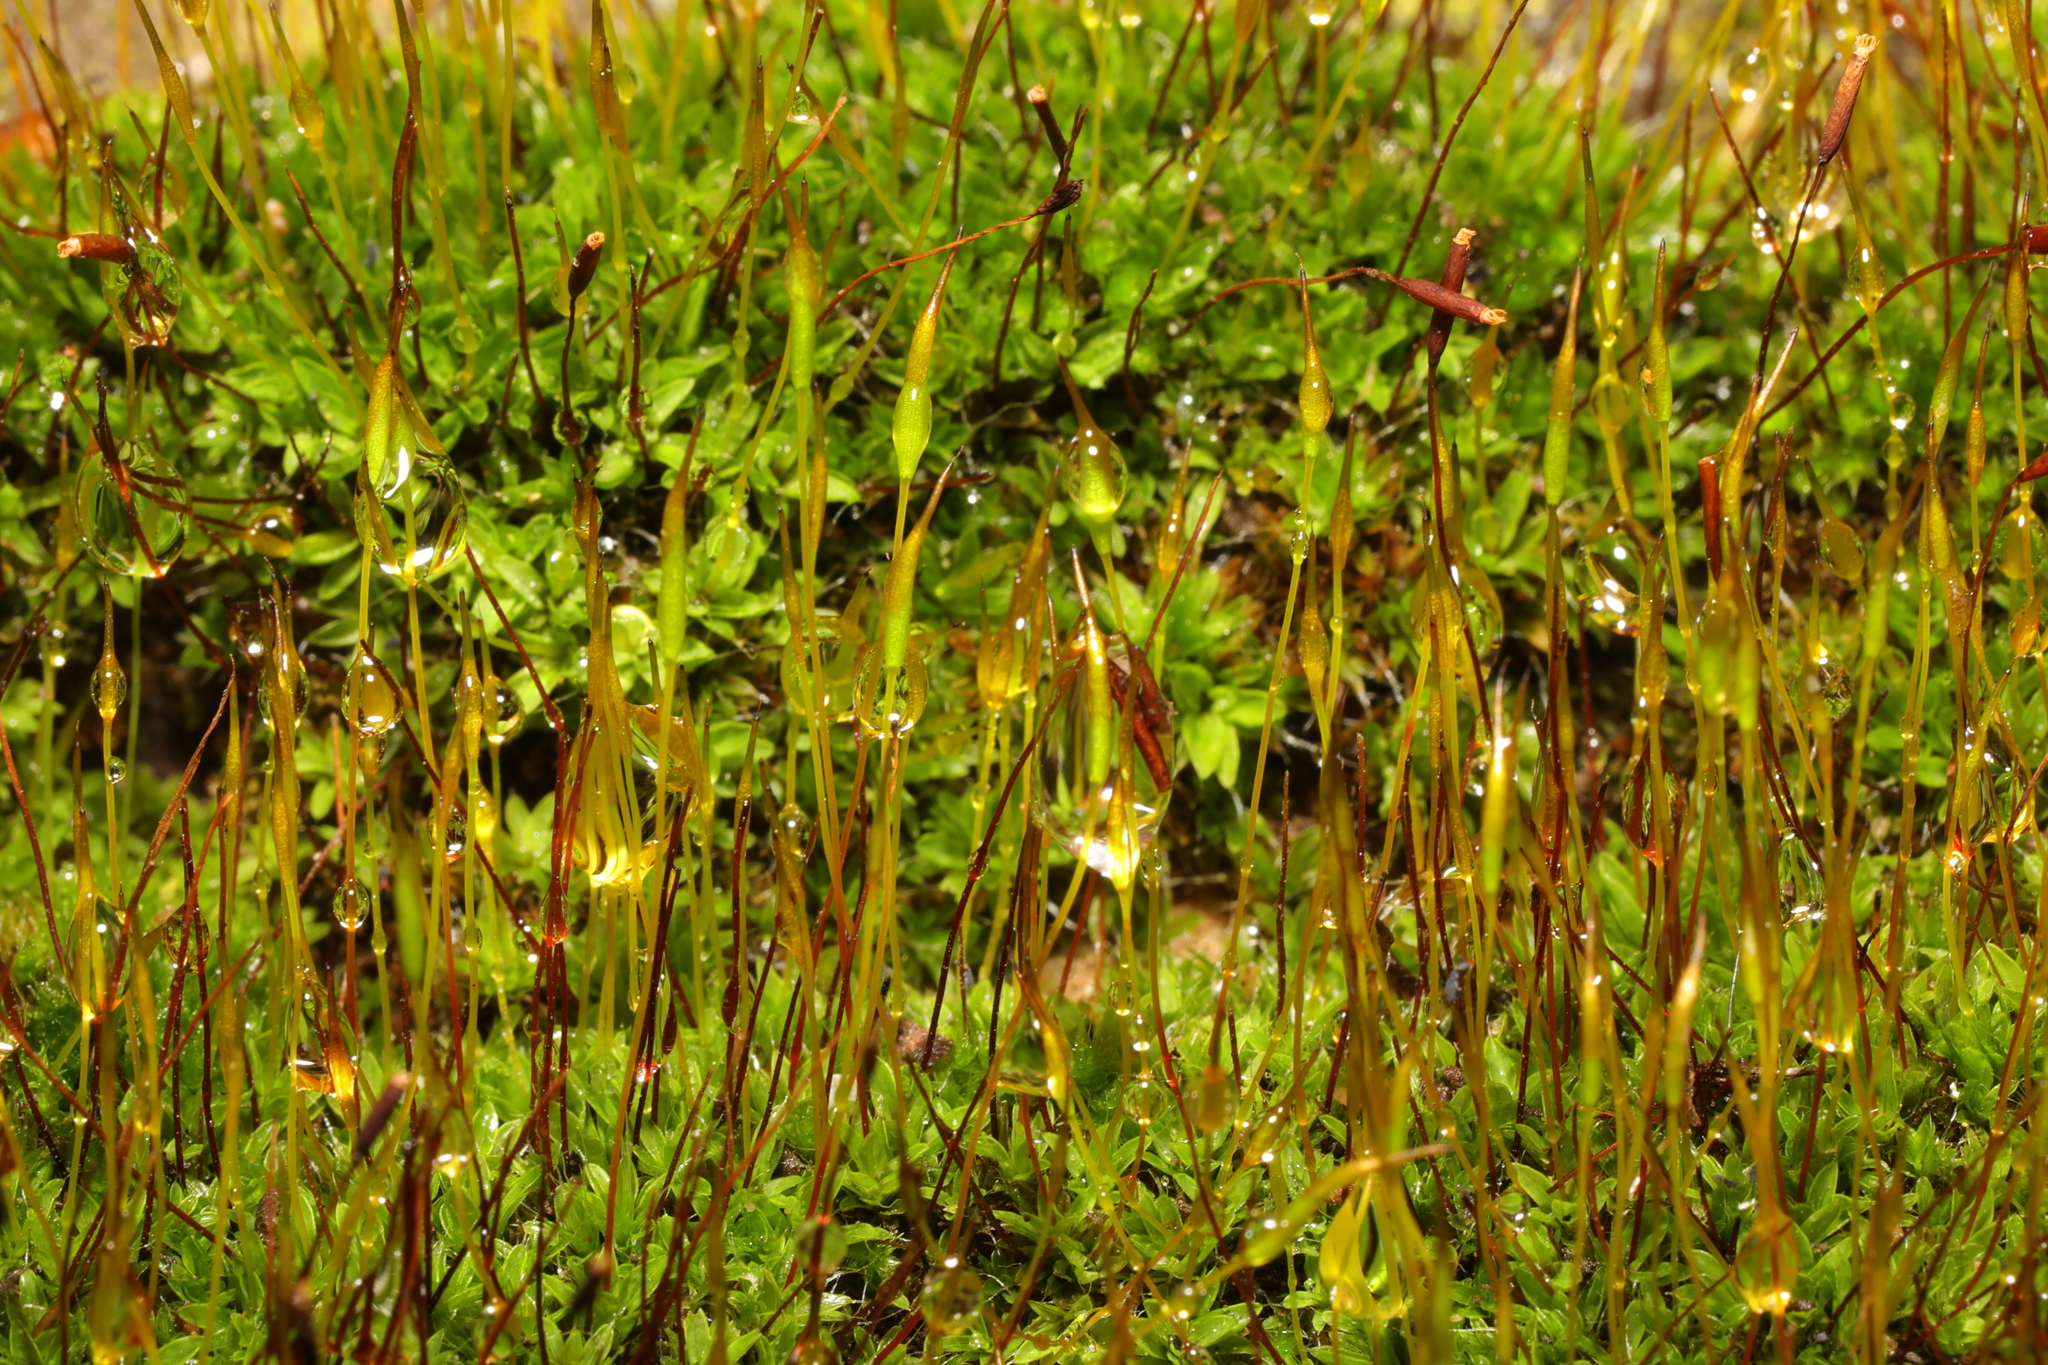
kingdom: Plantae
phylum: Bryophyta
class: Bryopsida
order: Pottiales
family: Pottiaceae
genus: Tortula
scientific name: Tortula muralis
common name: Wall screw-moss
